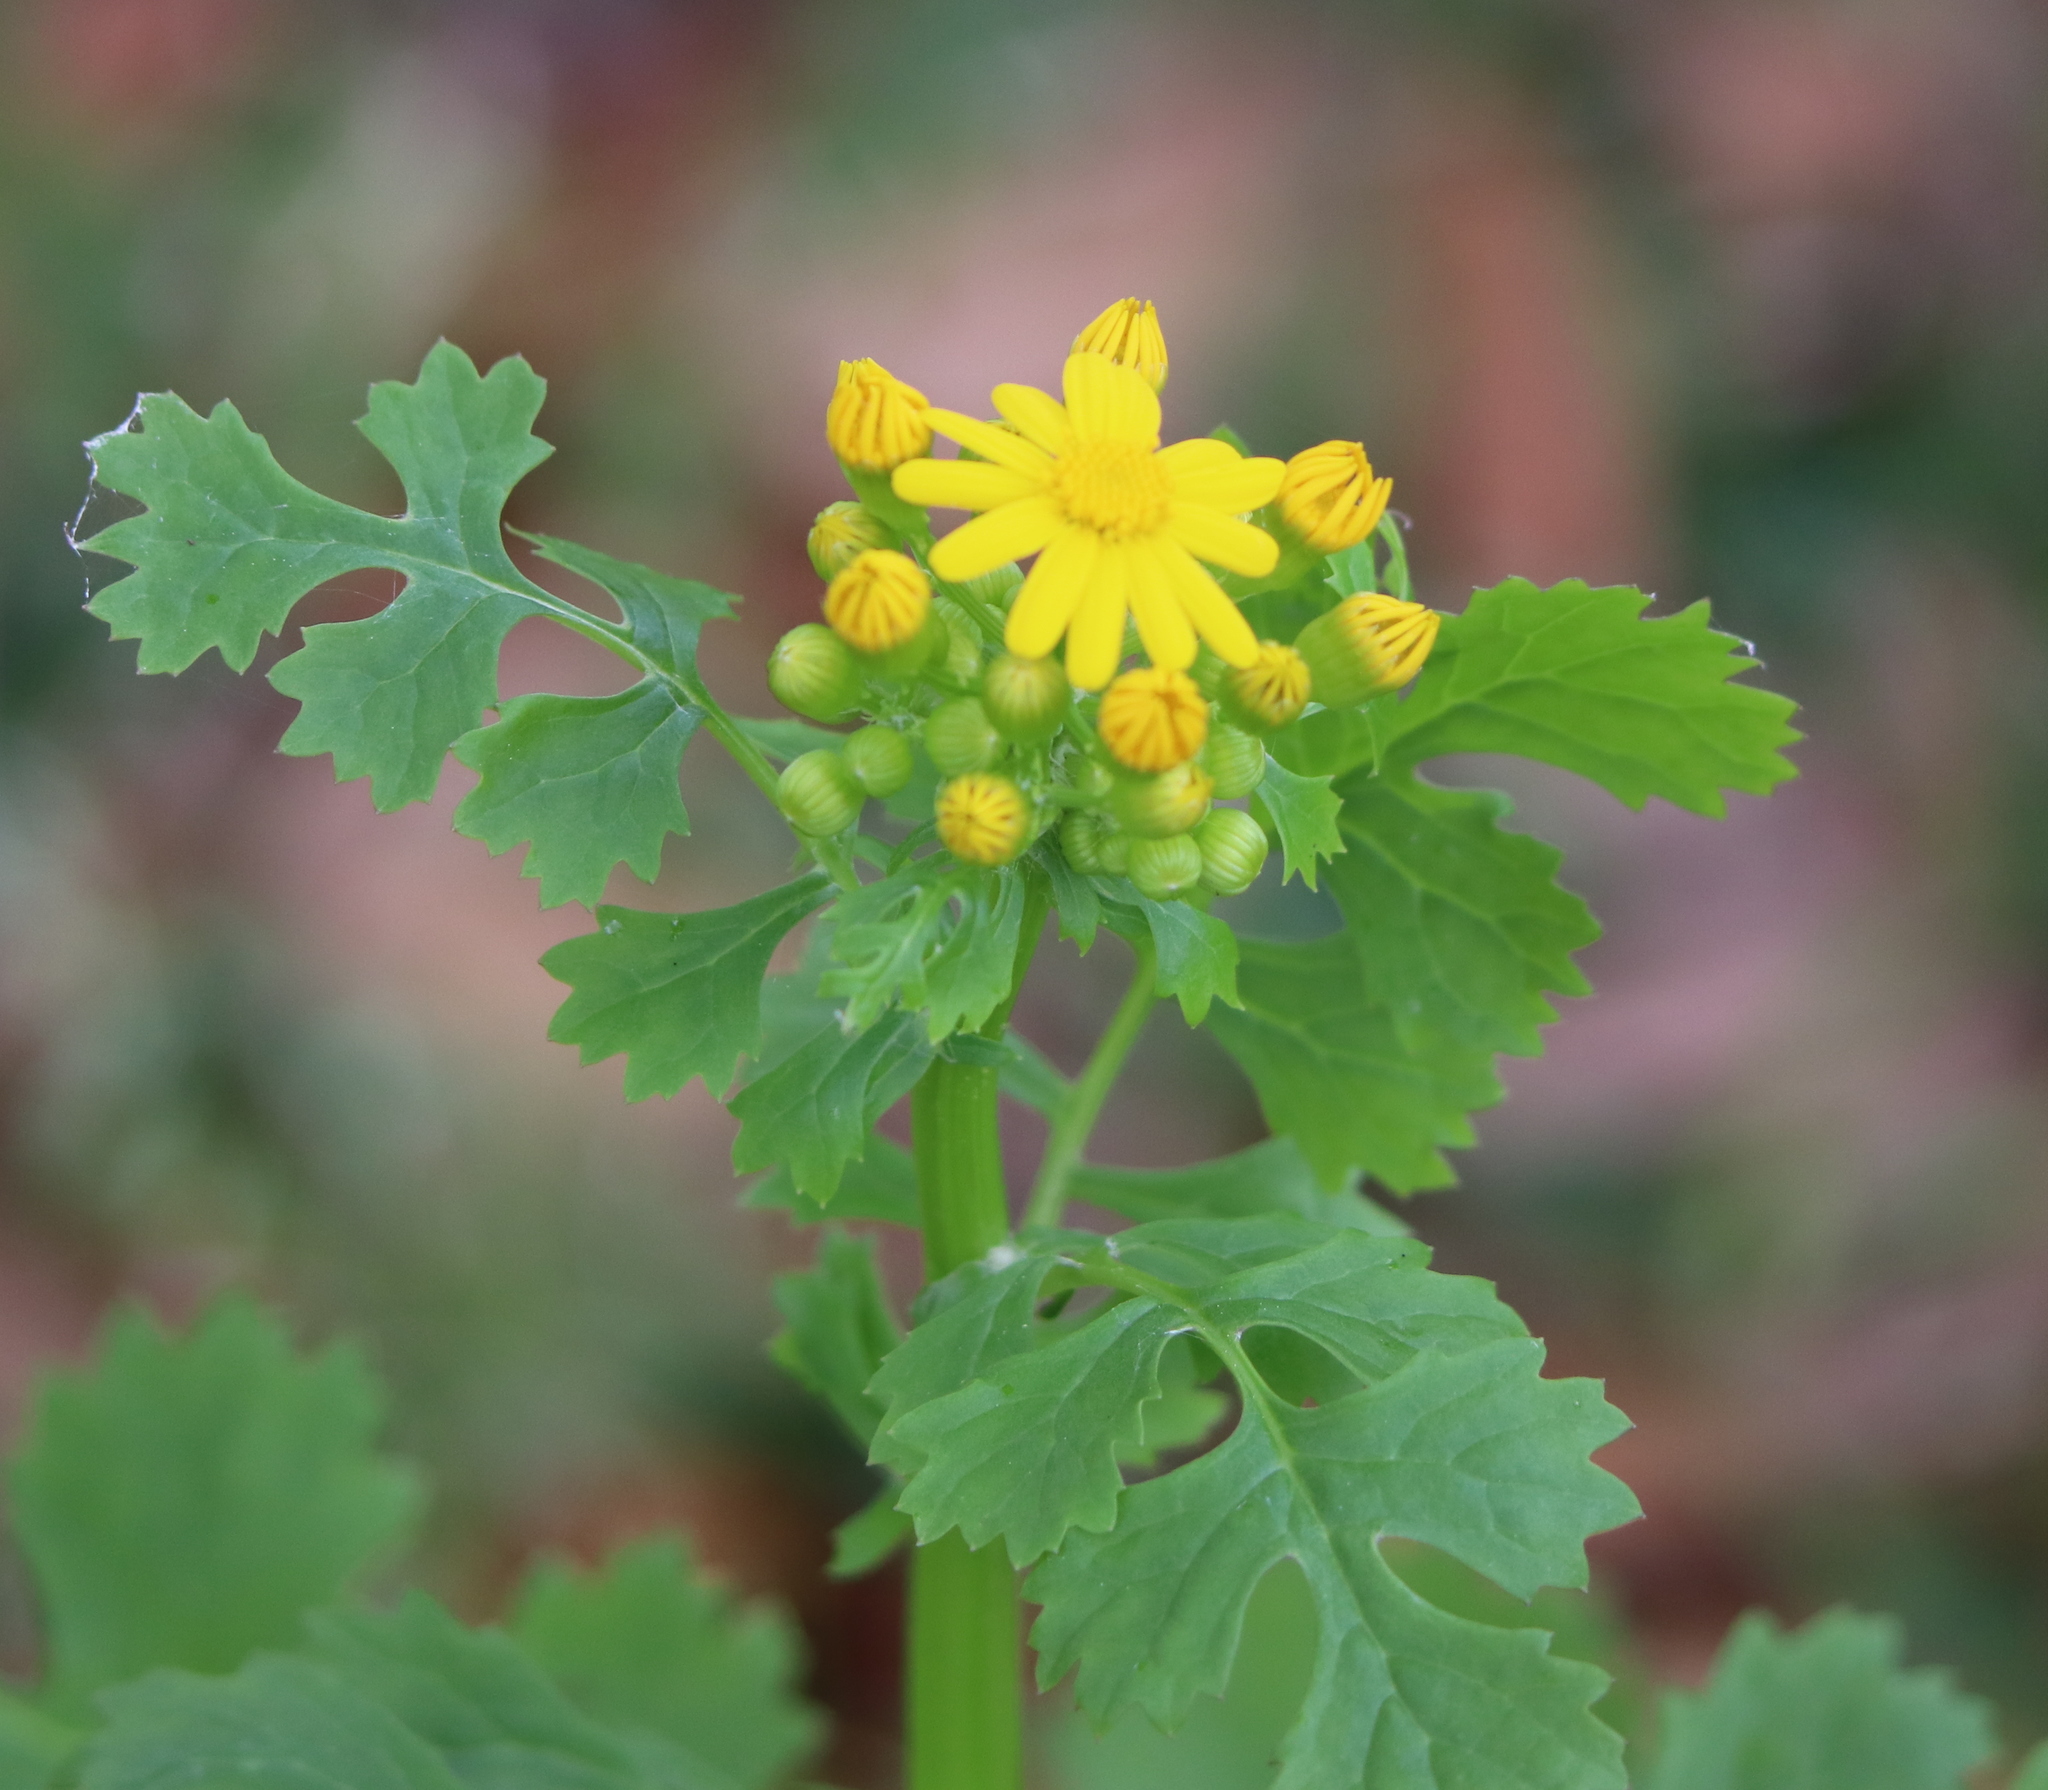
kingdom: Plantae
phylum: Tracheophyta
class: Magnoliopsida
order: Asterales
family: Asteraceae
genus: Packera
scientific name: Packera glabella
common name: Butterweed
